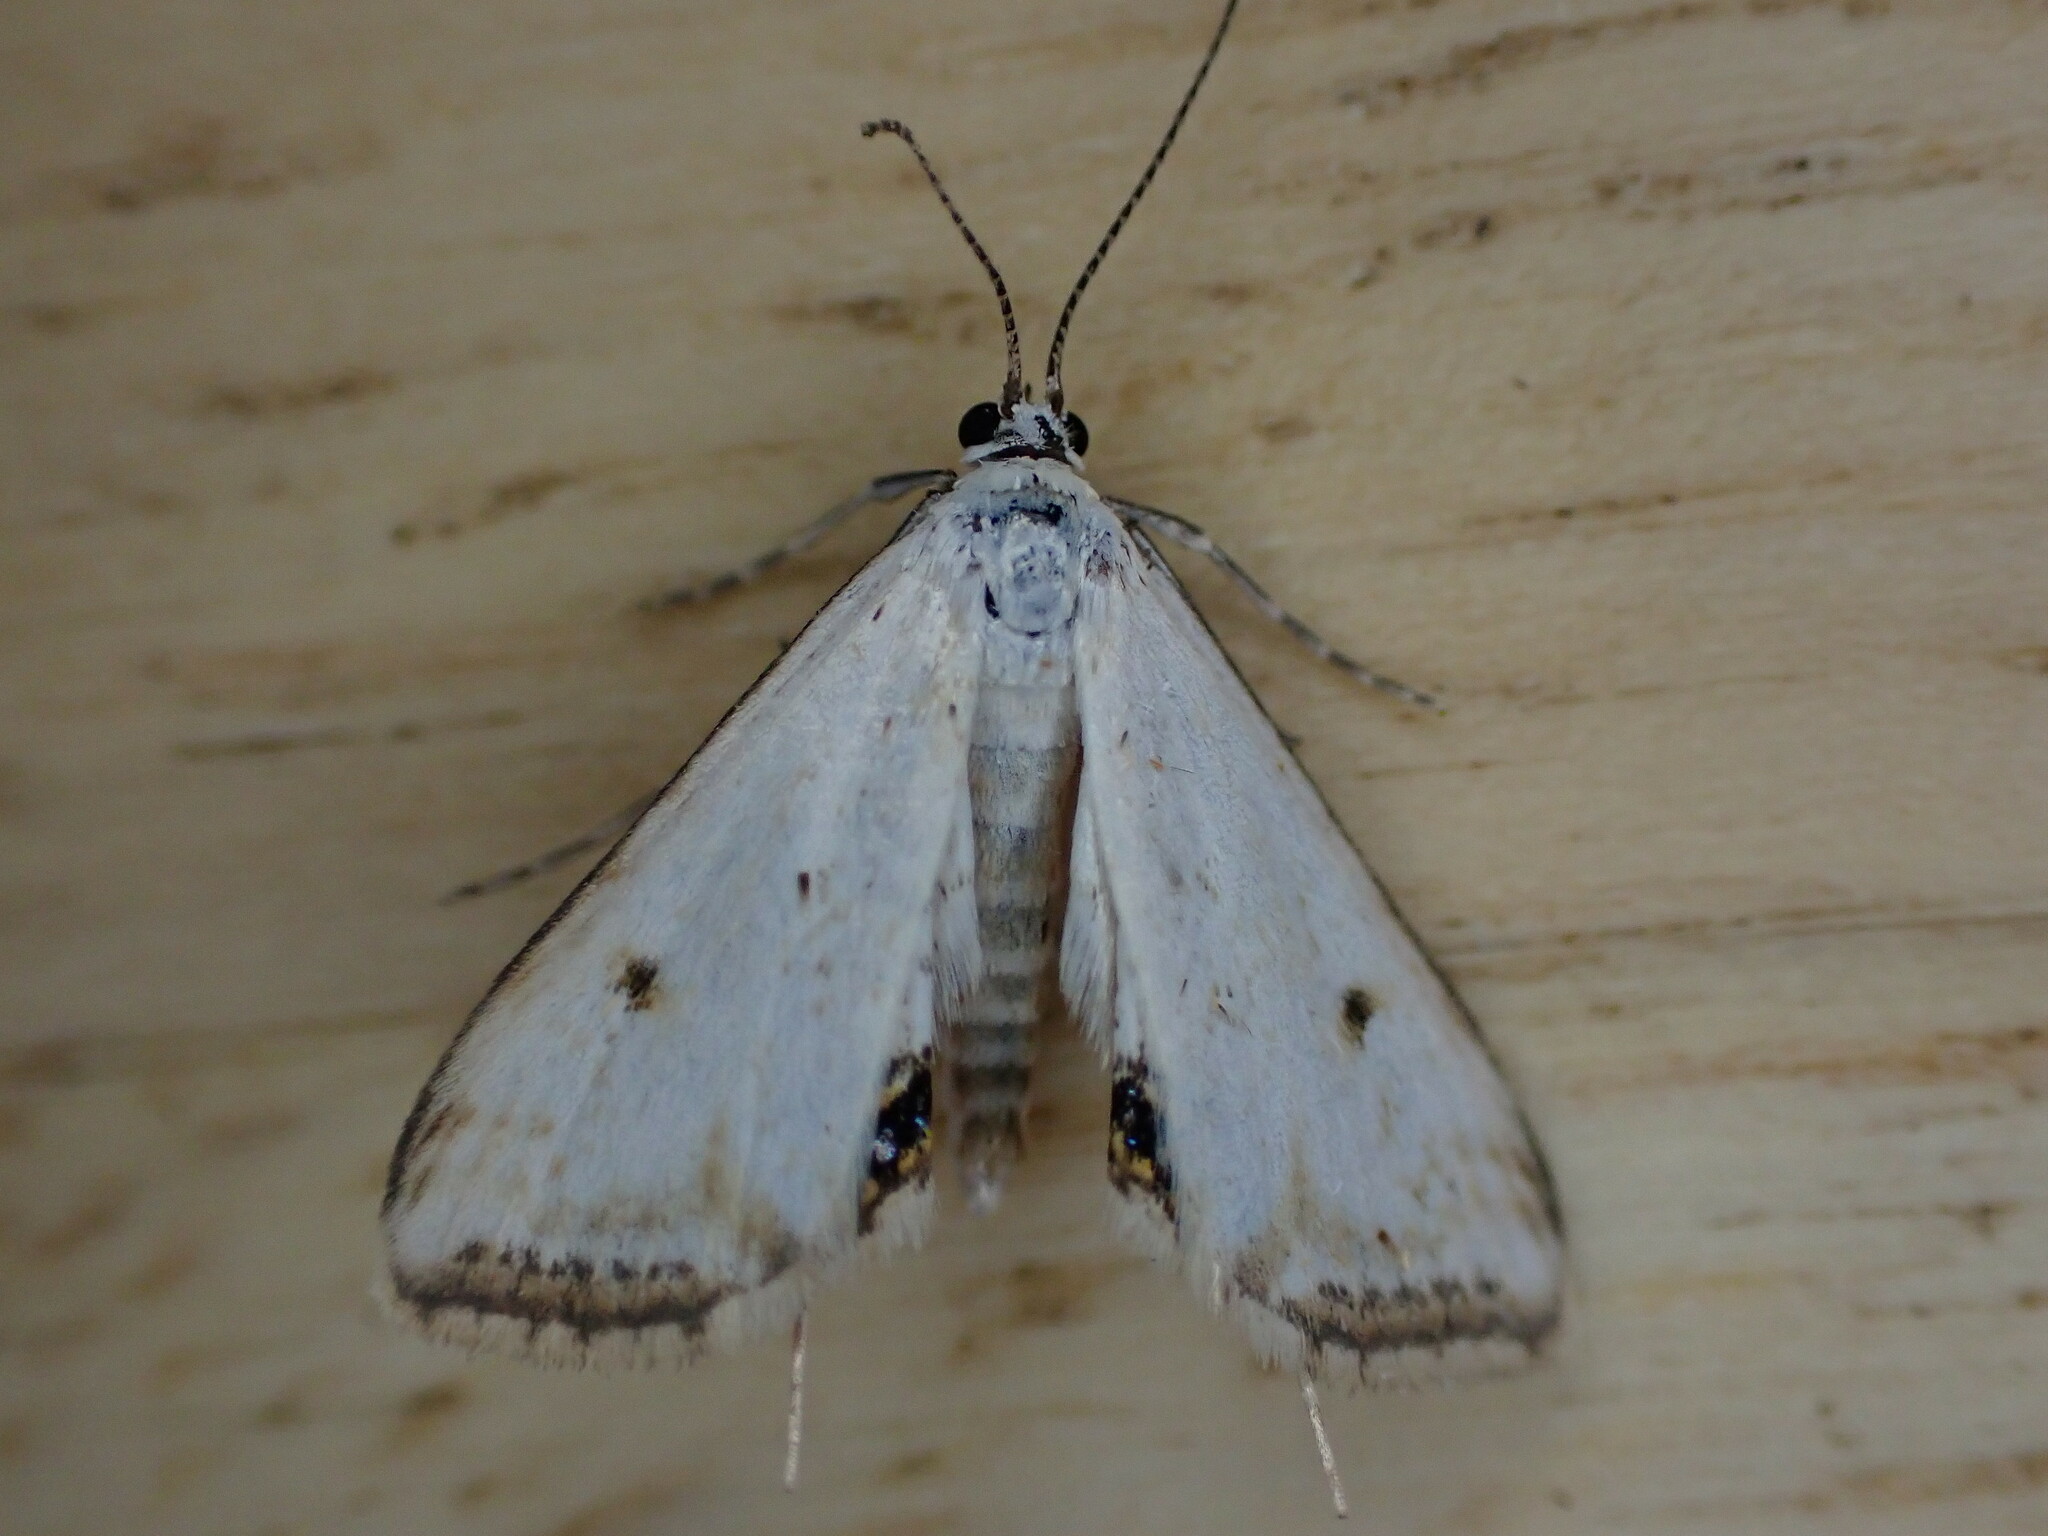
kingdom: Animalia
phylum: Arthropoda
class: Insecta
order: Lepidoptera
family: Crambidae
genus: Cataclysta
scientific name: Cataclysta lemnata
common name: Small china-mark
